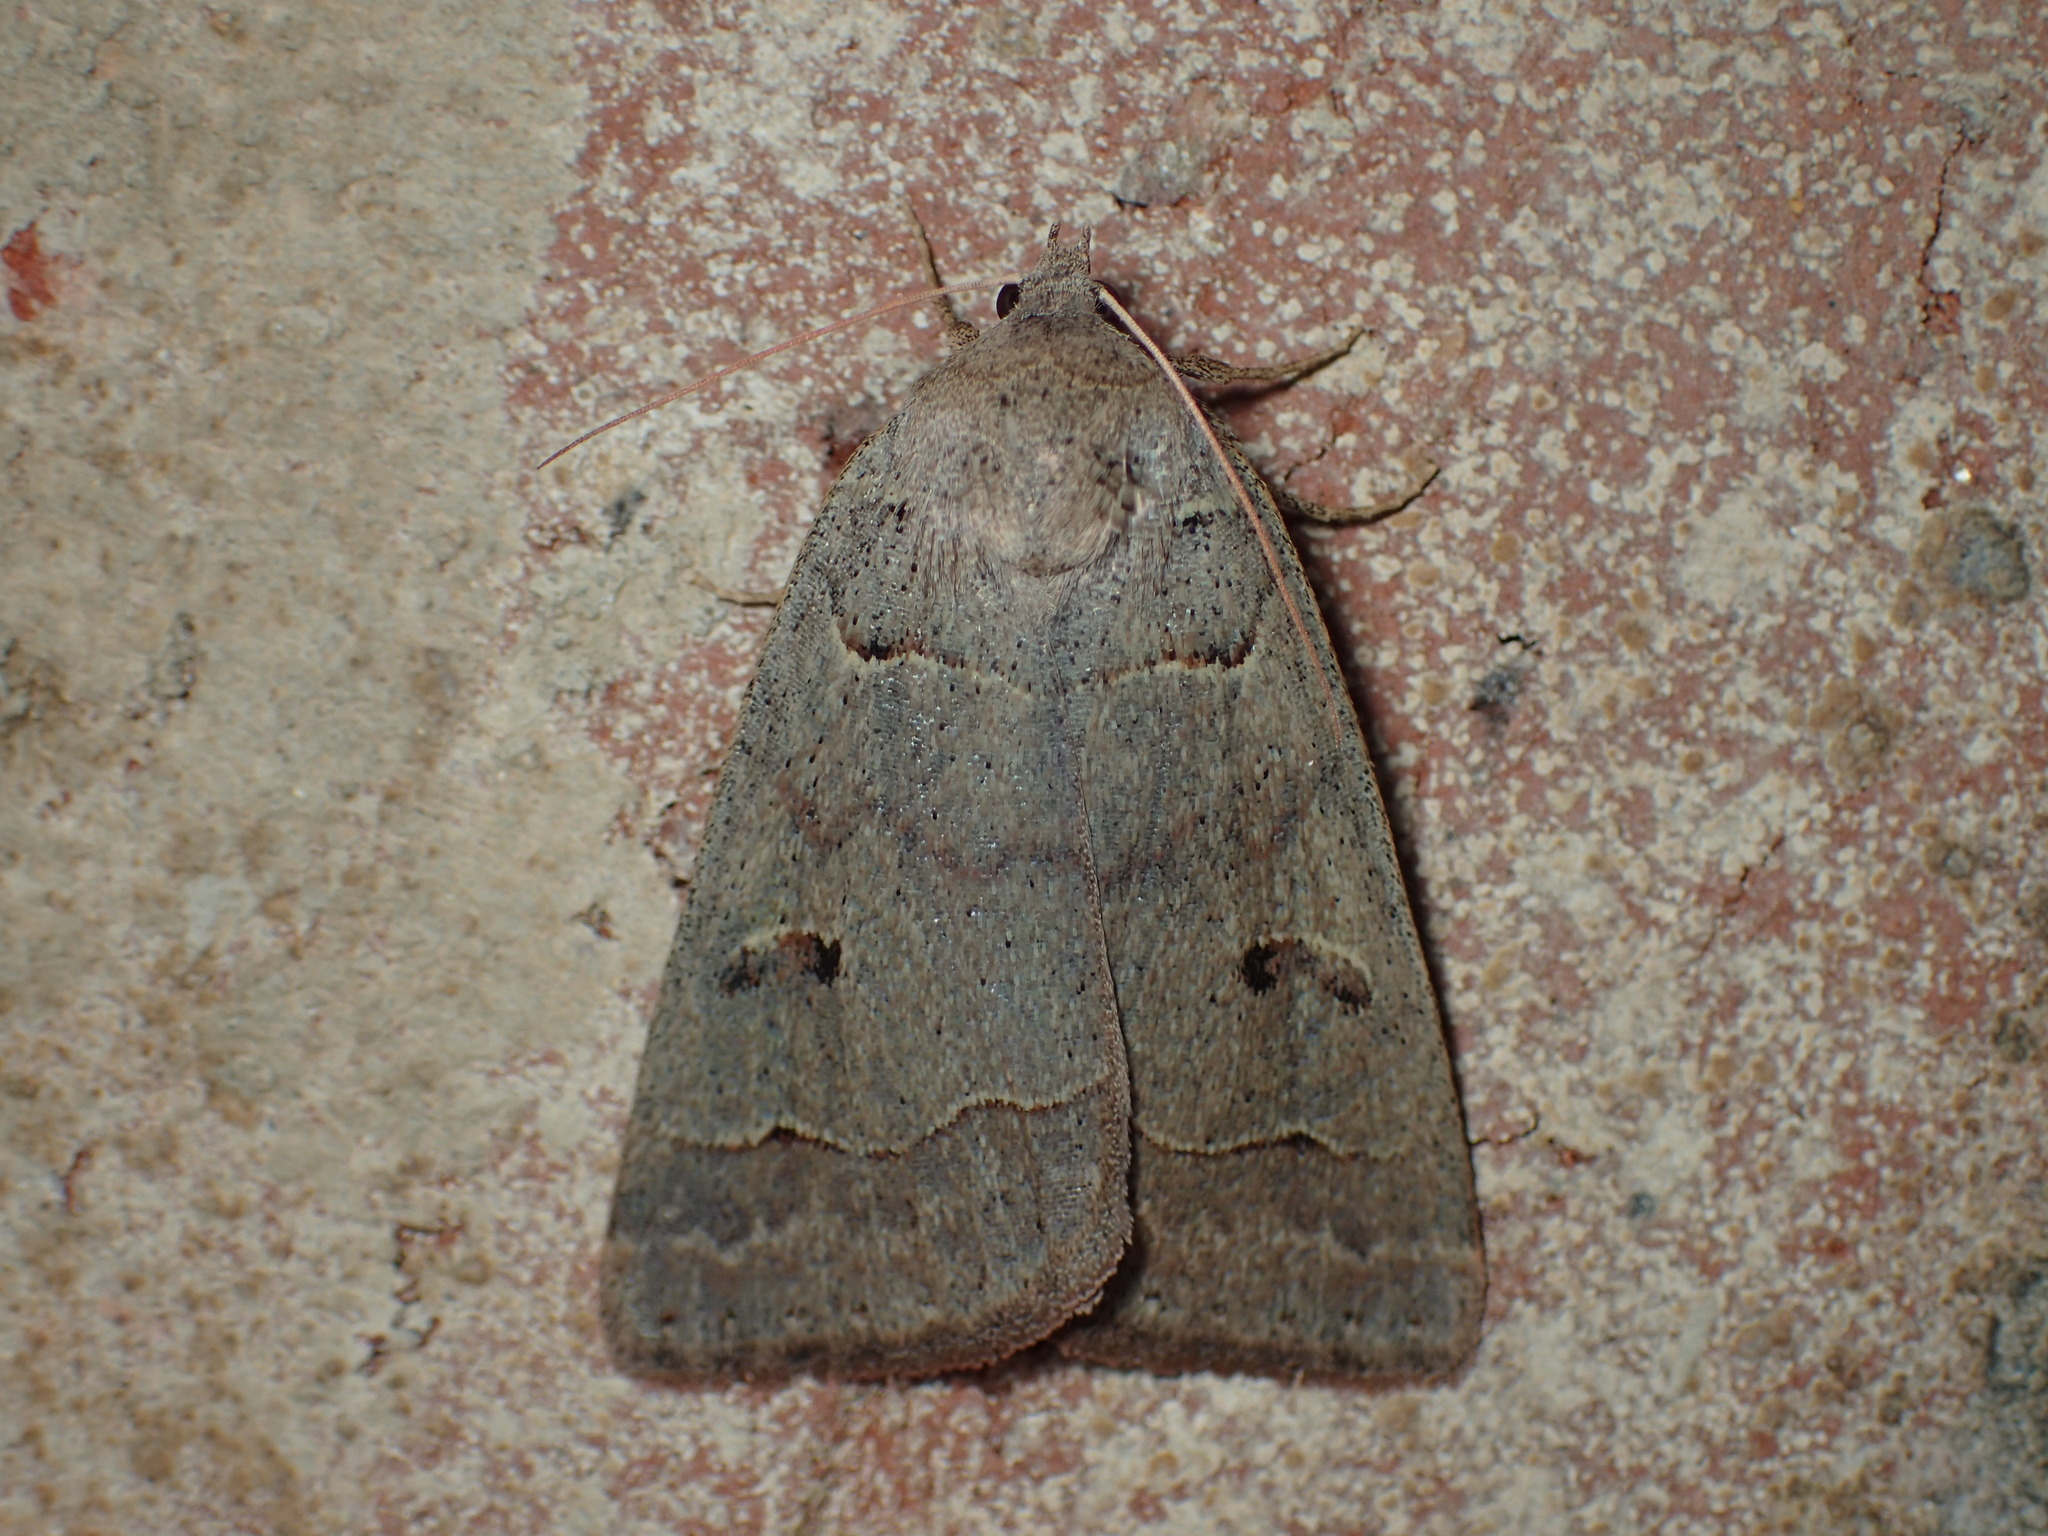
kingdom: Animalia
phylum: Arthropoda
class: Insecta
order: Lepidoptera
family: Erebidae
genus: Phoberia
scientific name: Phoberia atomaris
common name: Common oak moth
